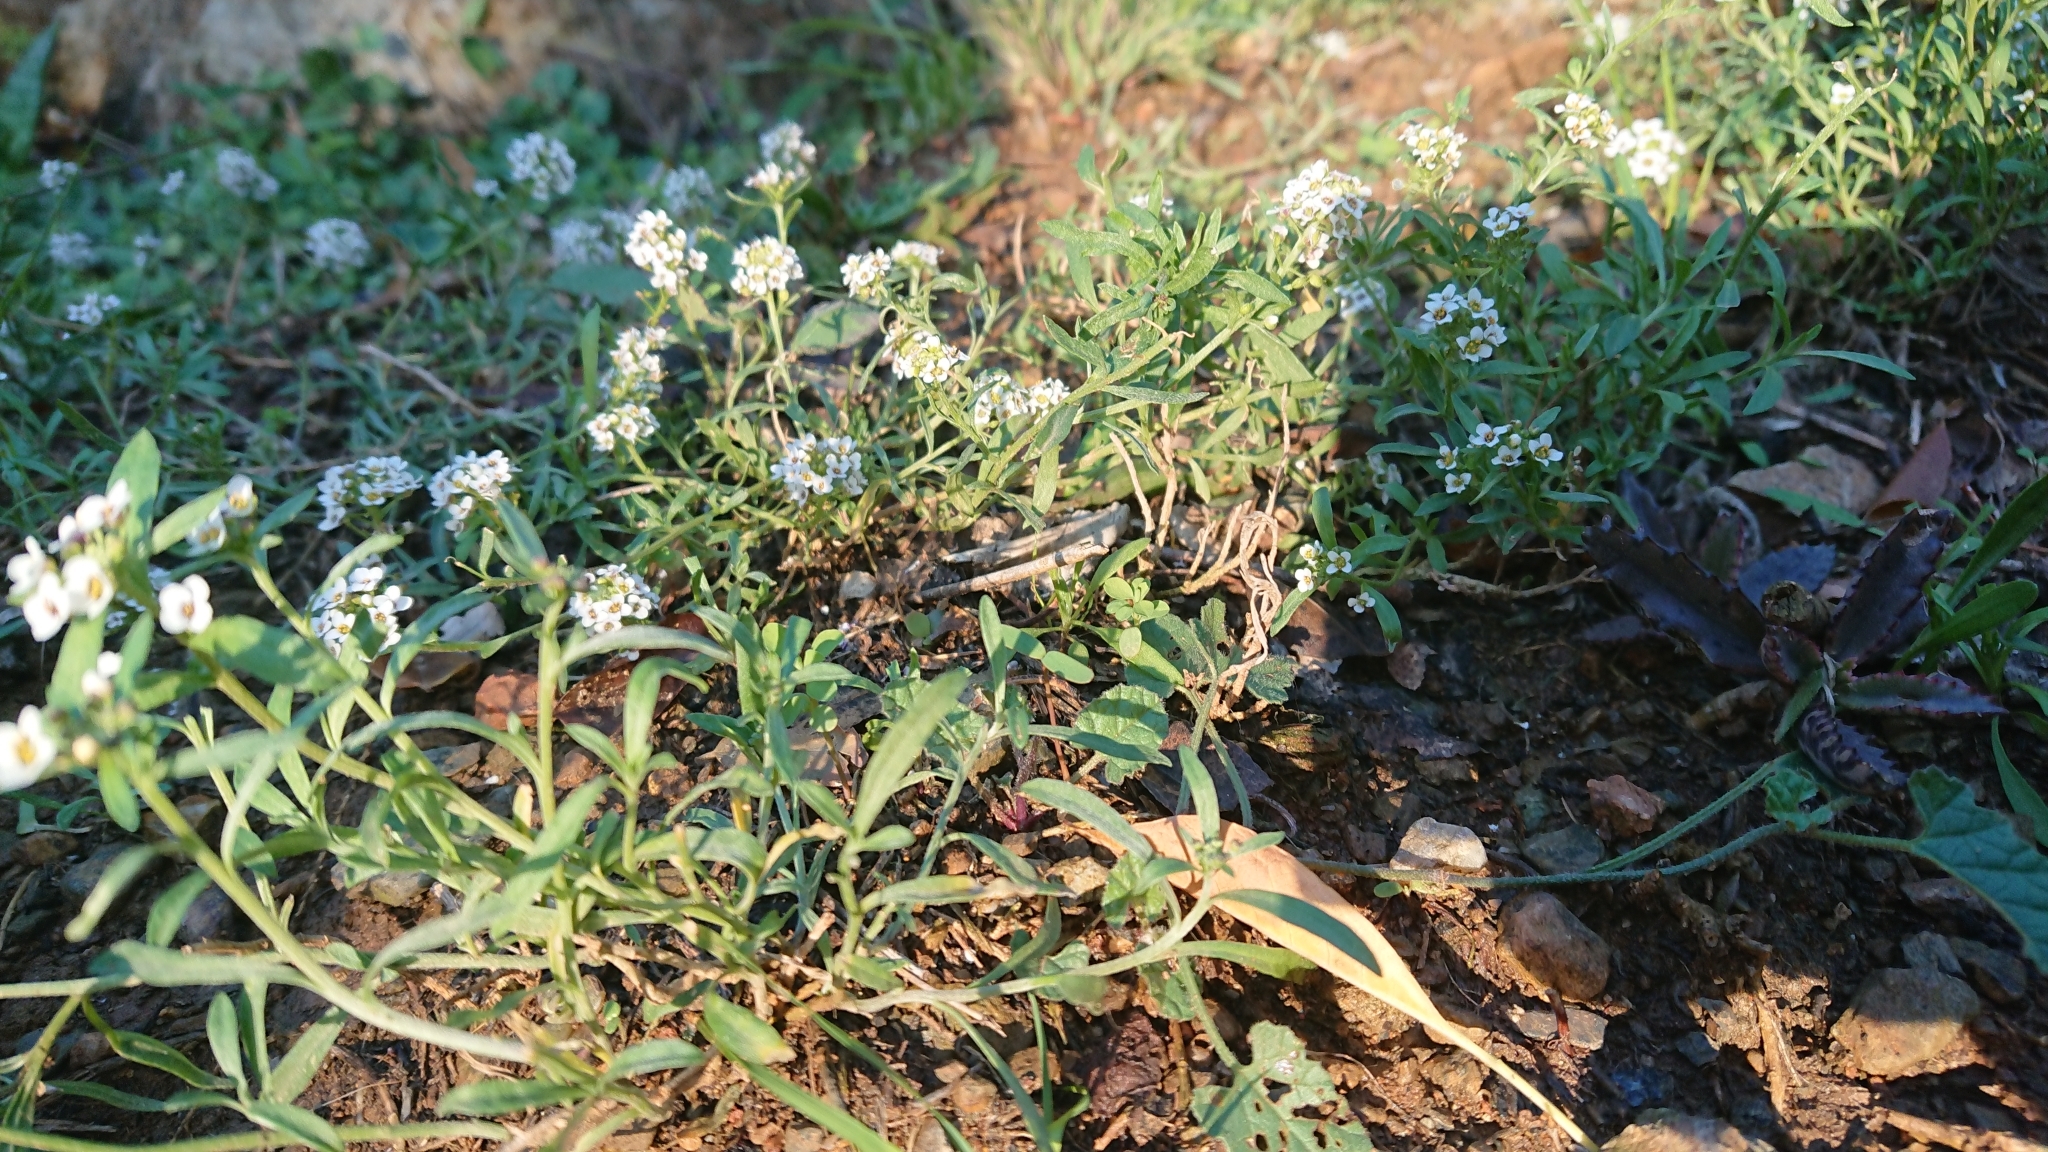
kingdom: Plantae
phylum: Tracheophyta
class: Magnoliopsida
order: Brassicales
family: Brassicaceae
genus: Lobularia
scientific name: Lobularia maritima
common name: Sweet alison
